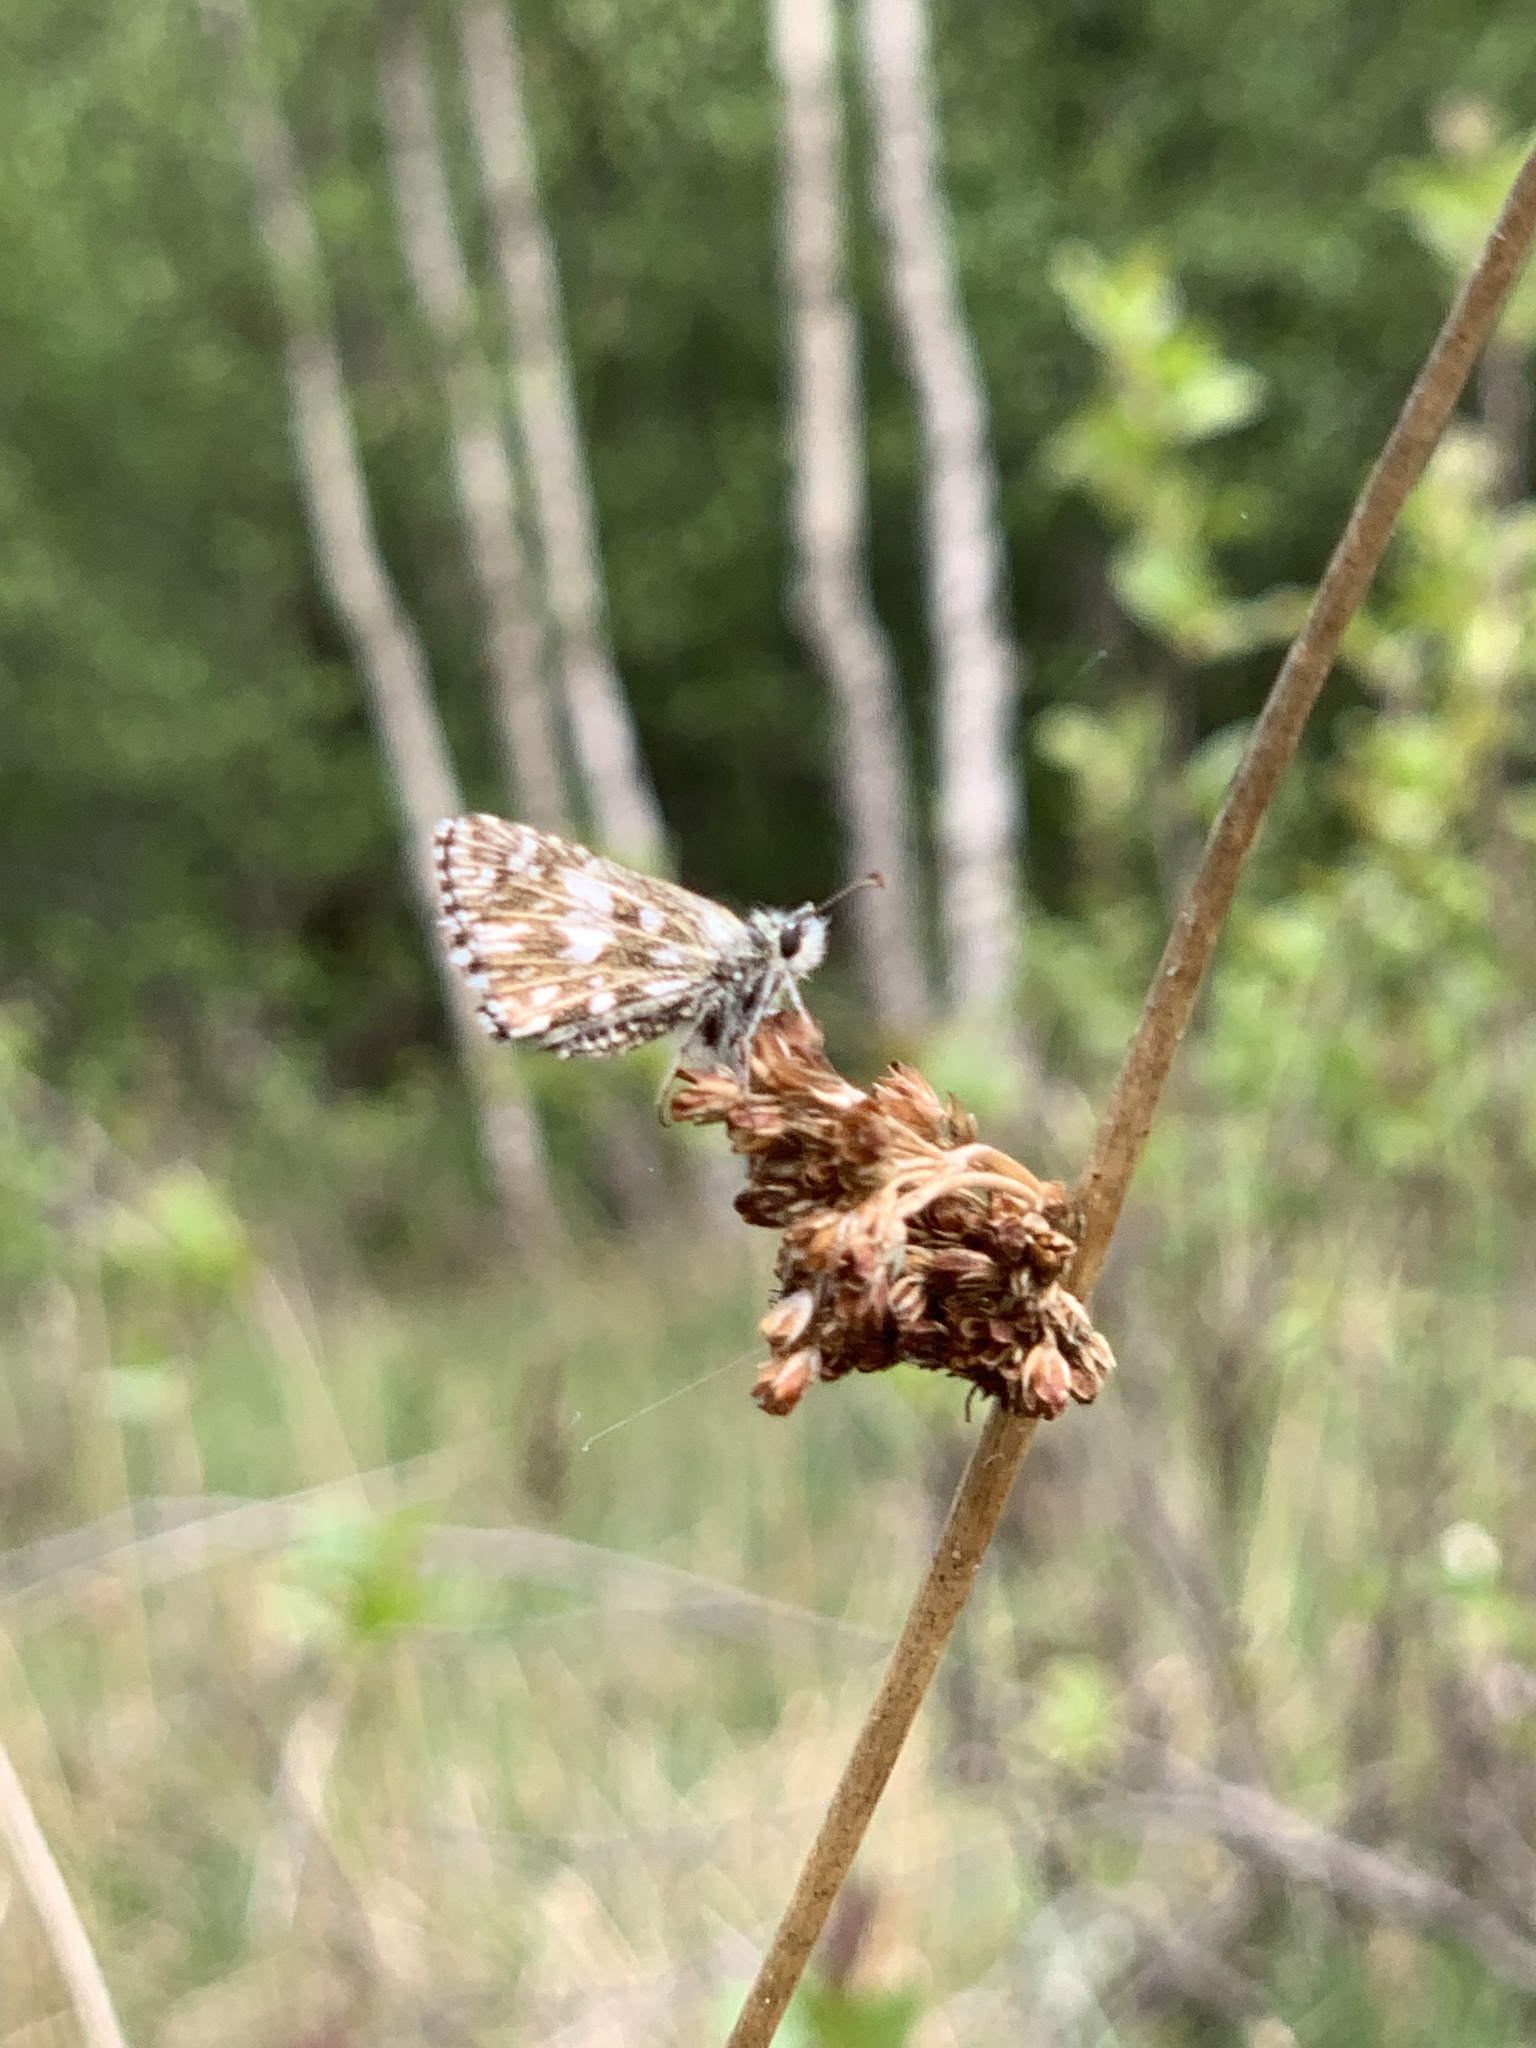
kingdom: Animalia
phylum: Arthropoda
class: Insecta
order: Lepidoptera
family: Hesperiidae
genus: Pyrgus
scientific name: Pyrgus malvae
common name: Grizzled skipper
